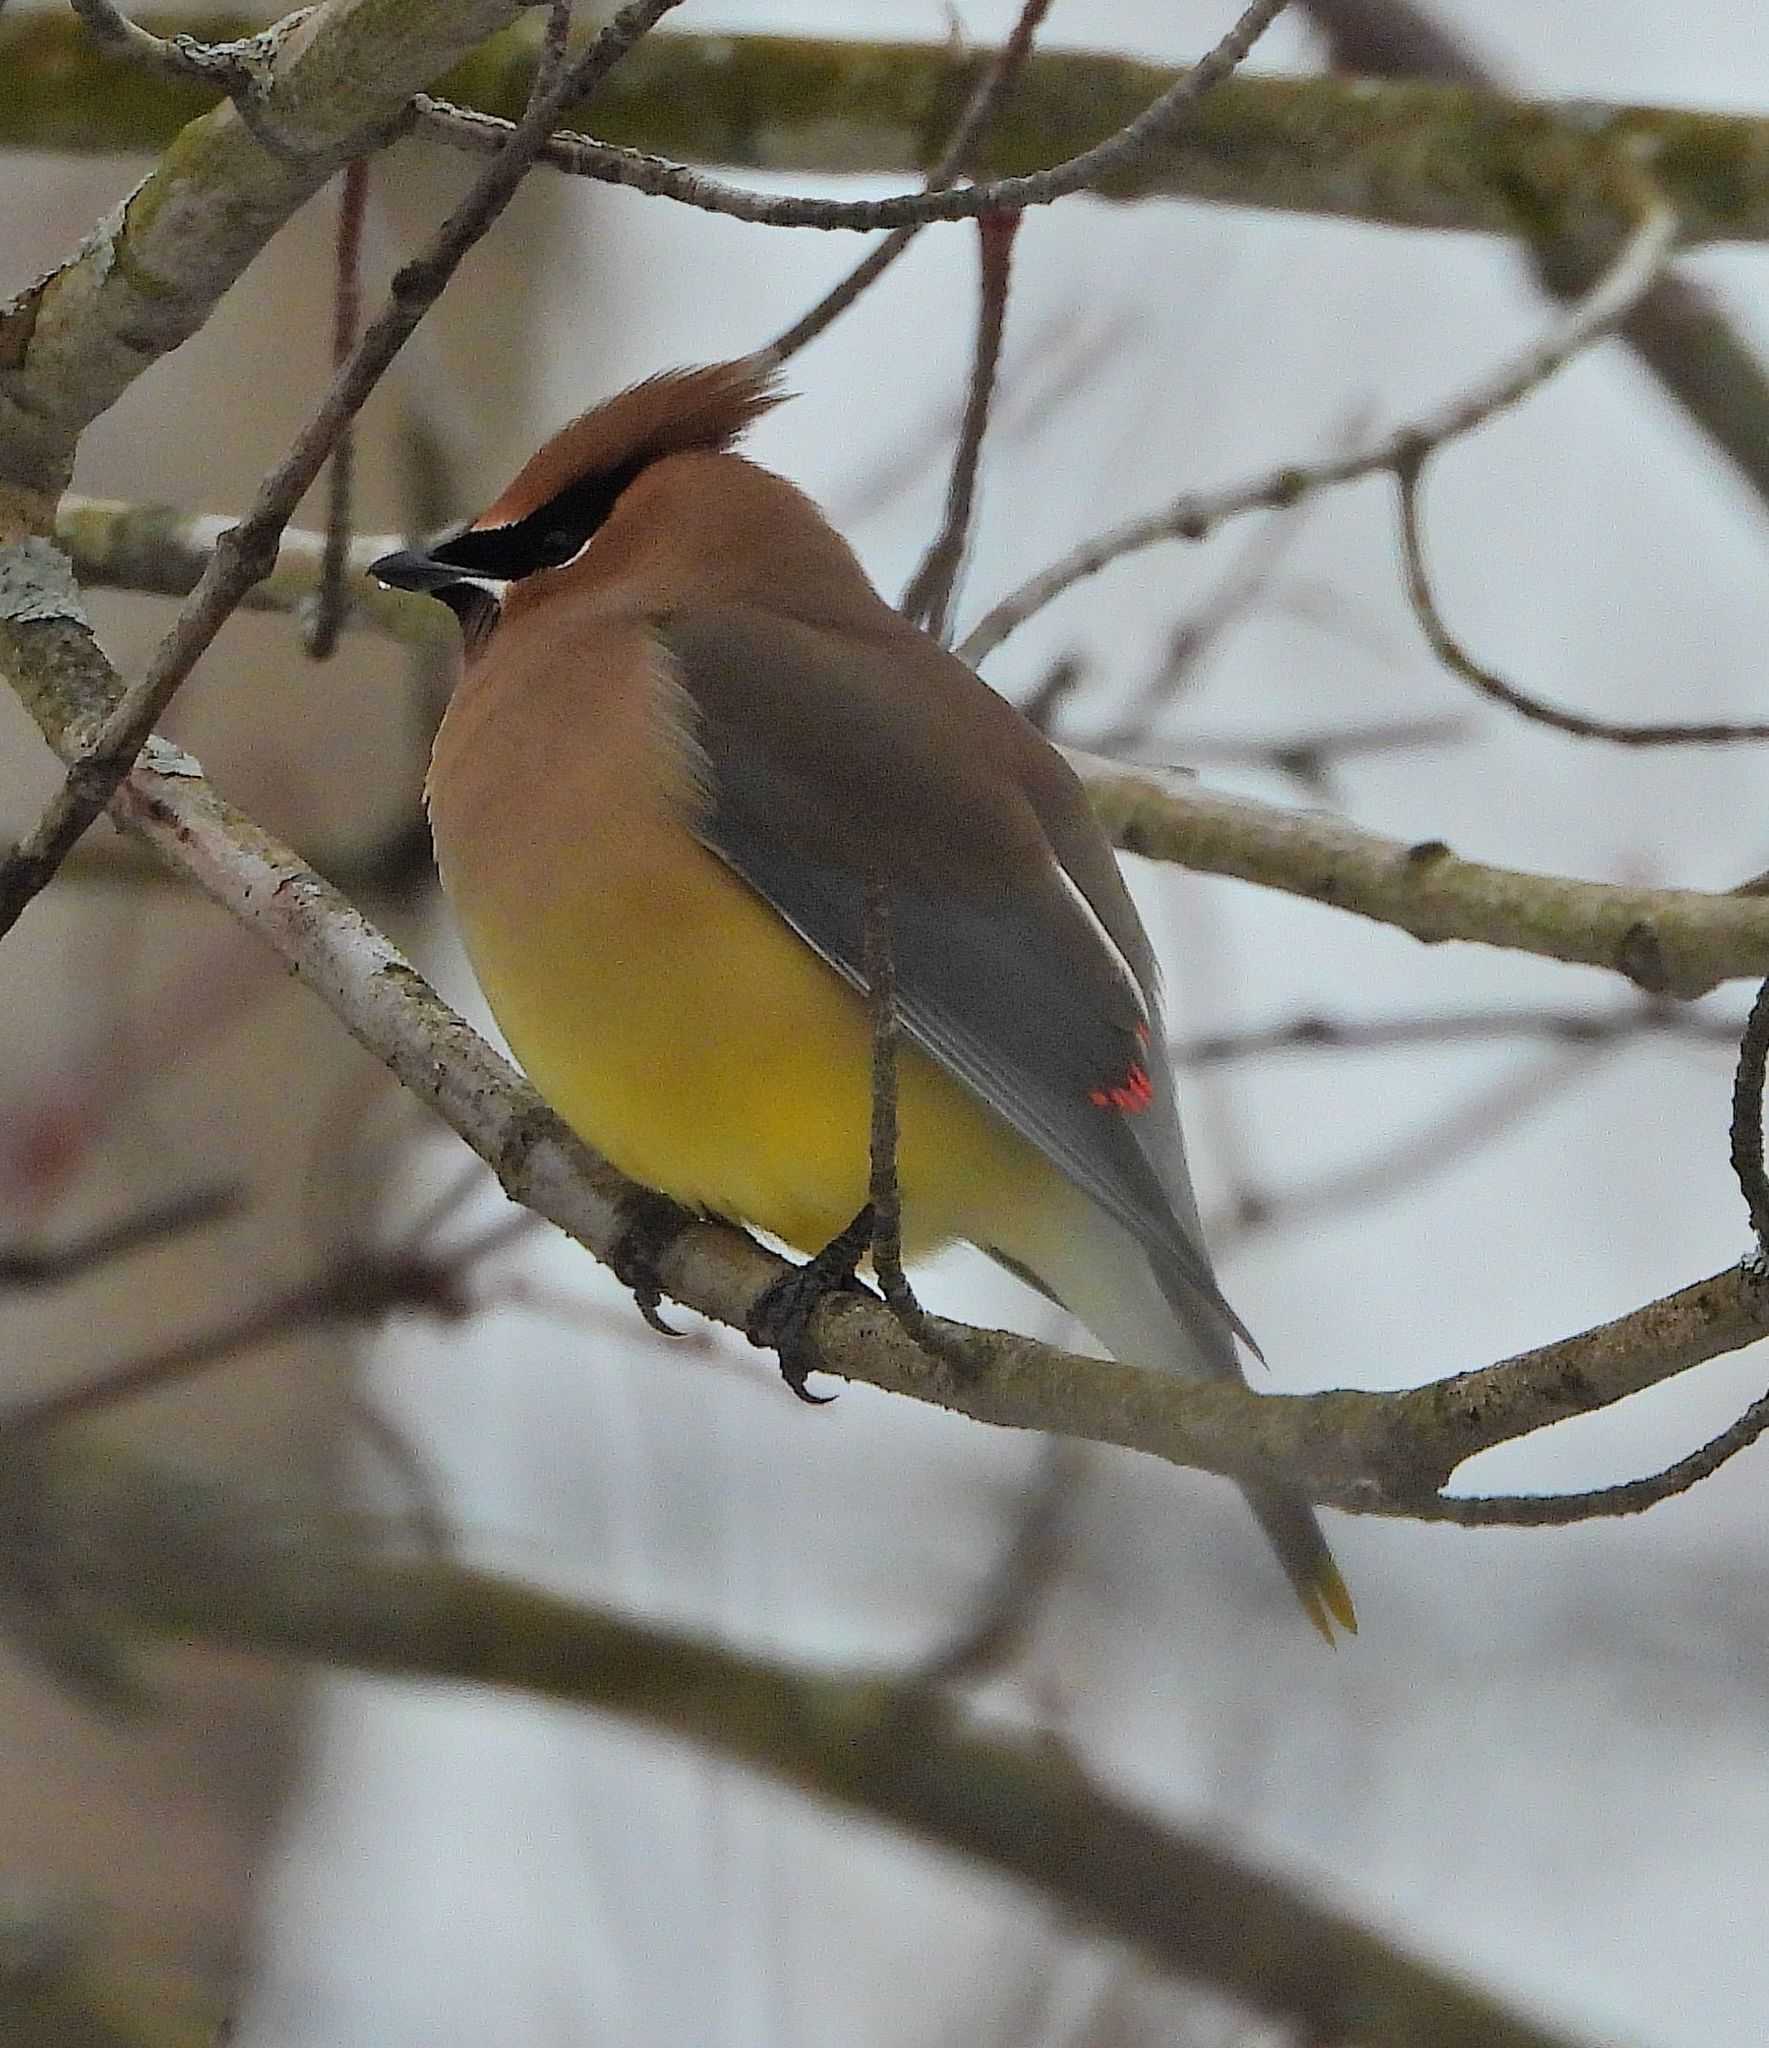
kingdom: Animalia
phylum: Chordata
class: Aves
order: Passeriformes
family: Bombycillidae
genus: Bombycilla
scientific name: Bombycilla cedrorum
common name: Cedar waxwing
